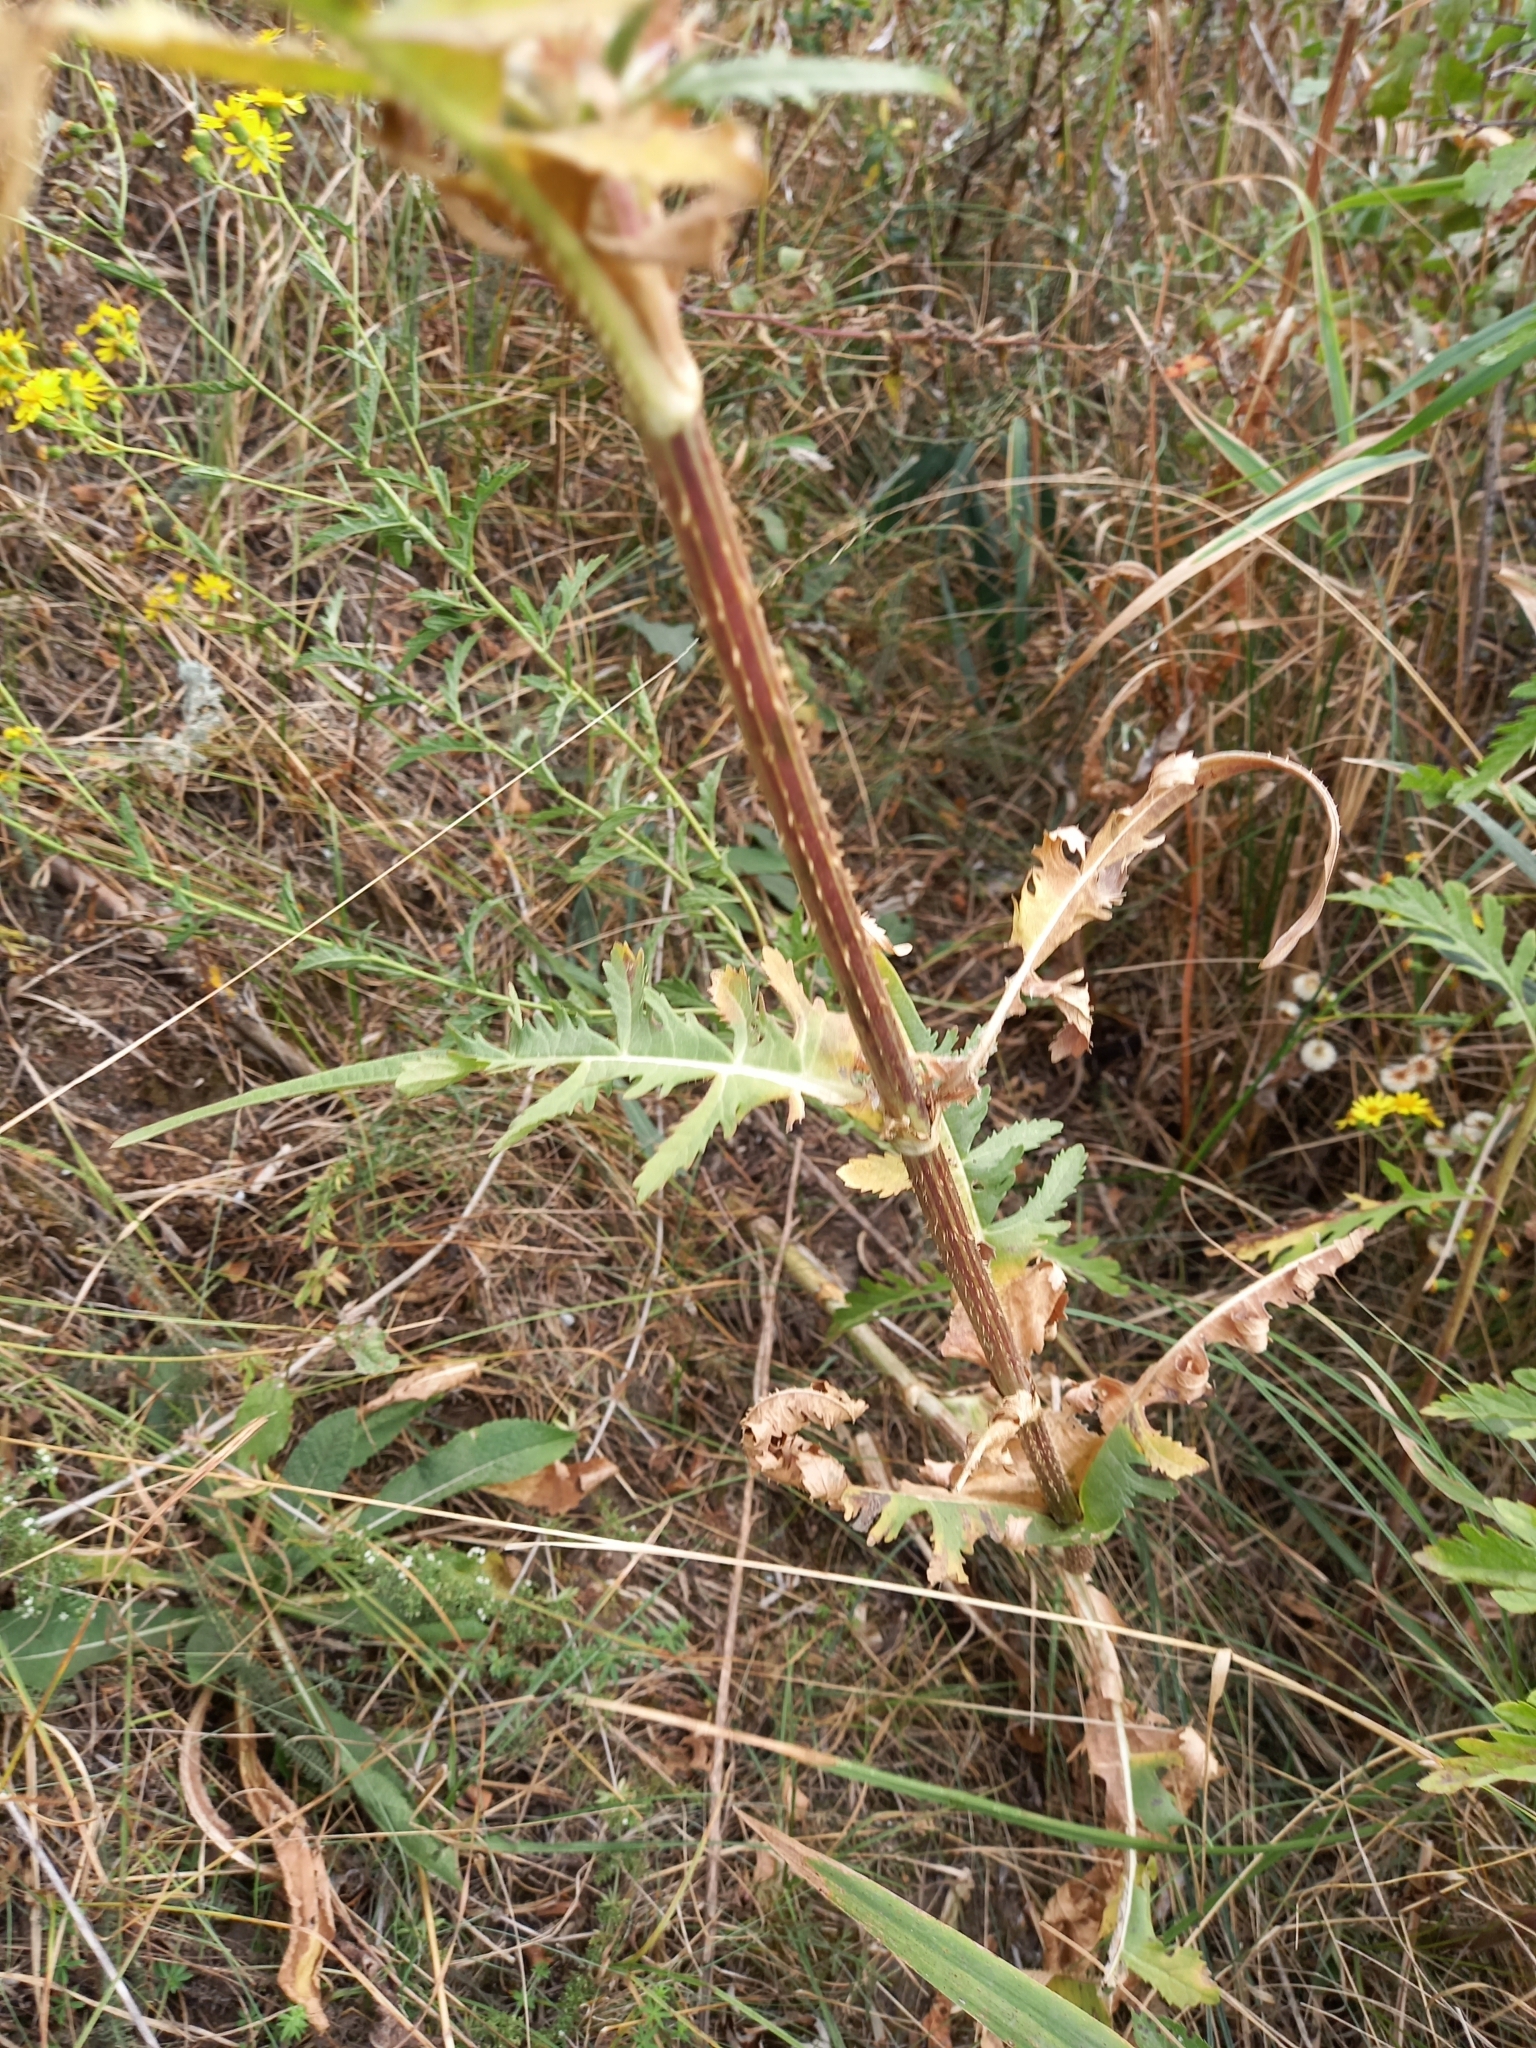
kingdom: Plantae
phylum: Tracheophyta
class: Magnoliopsida
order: Dipsacales
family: Caprifoliaceae
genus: Dipsacus
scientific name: Dipsacus laciniatus
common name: Cut-leaved teasel
